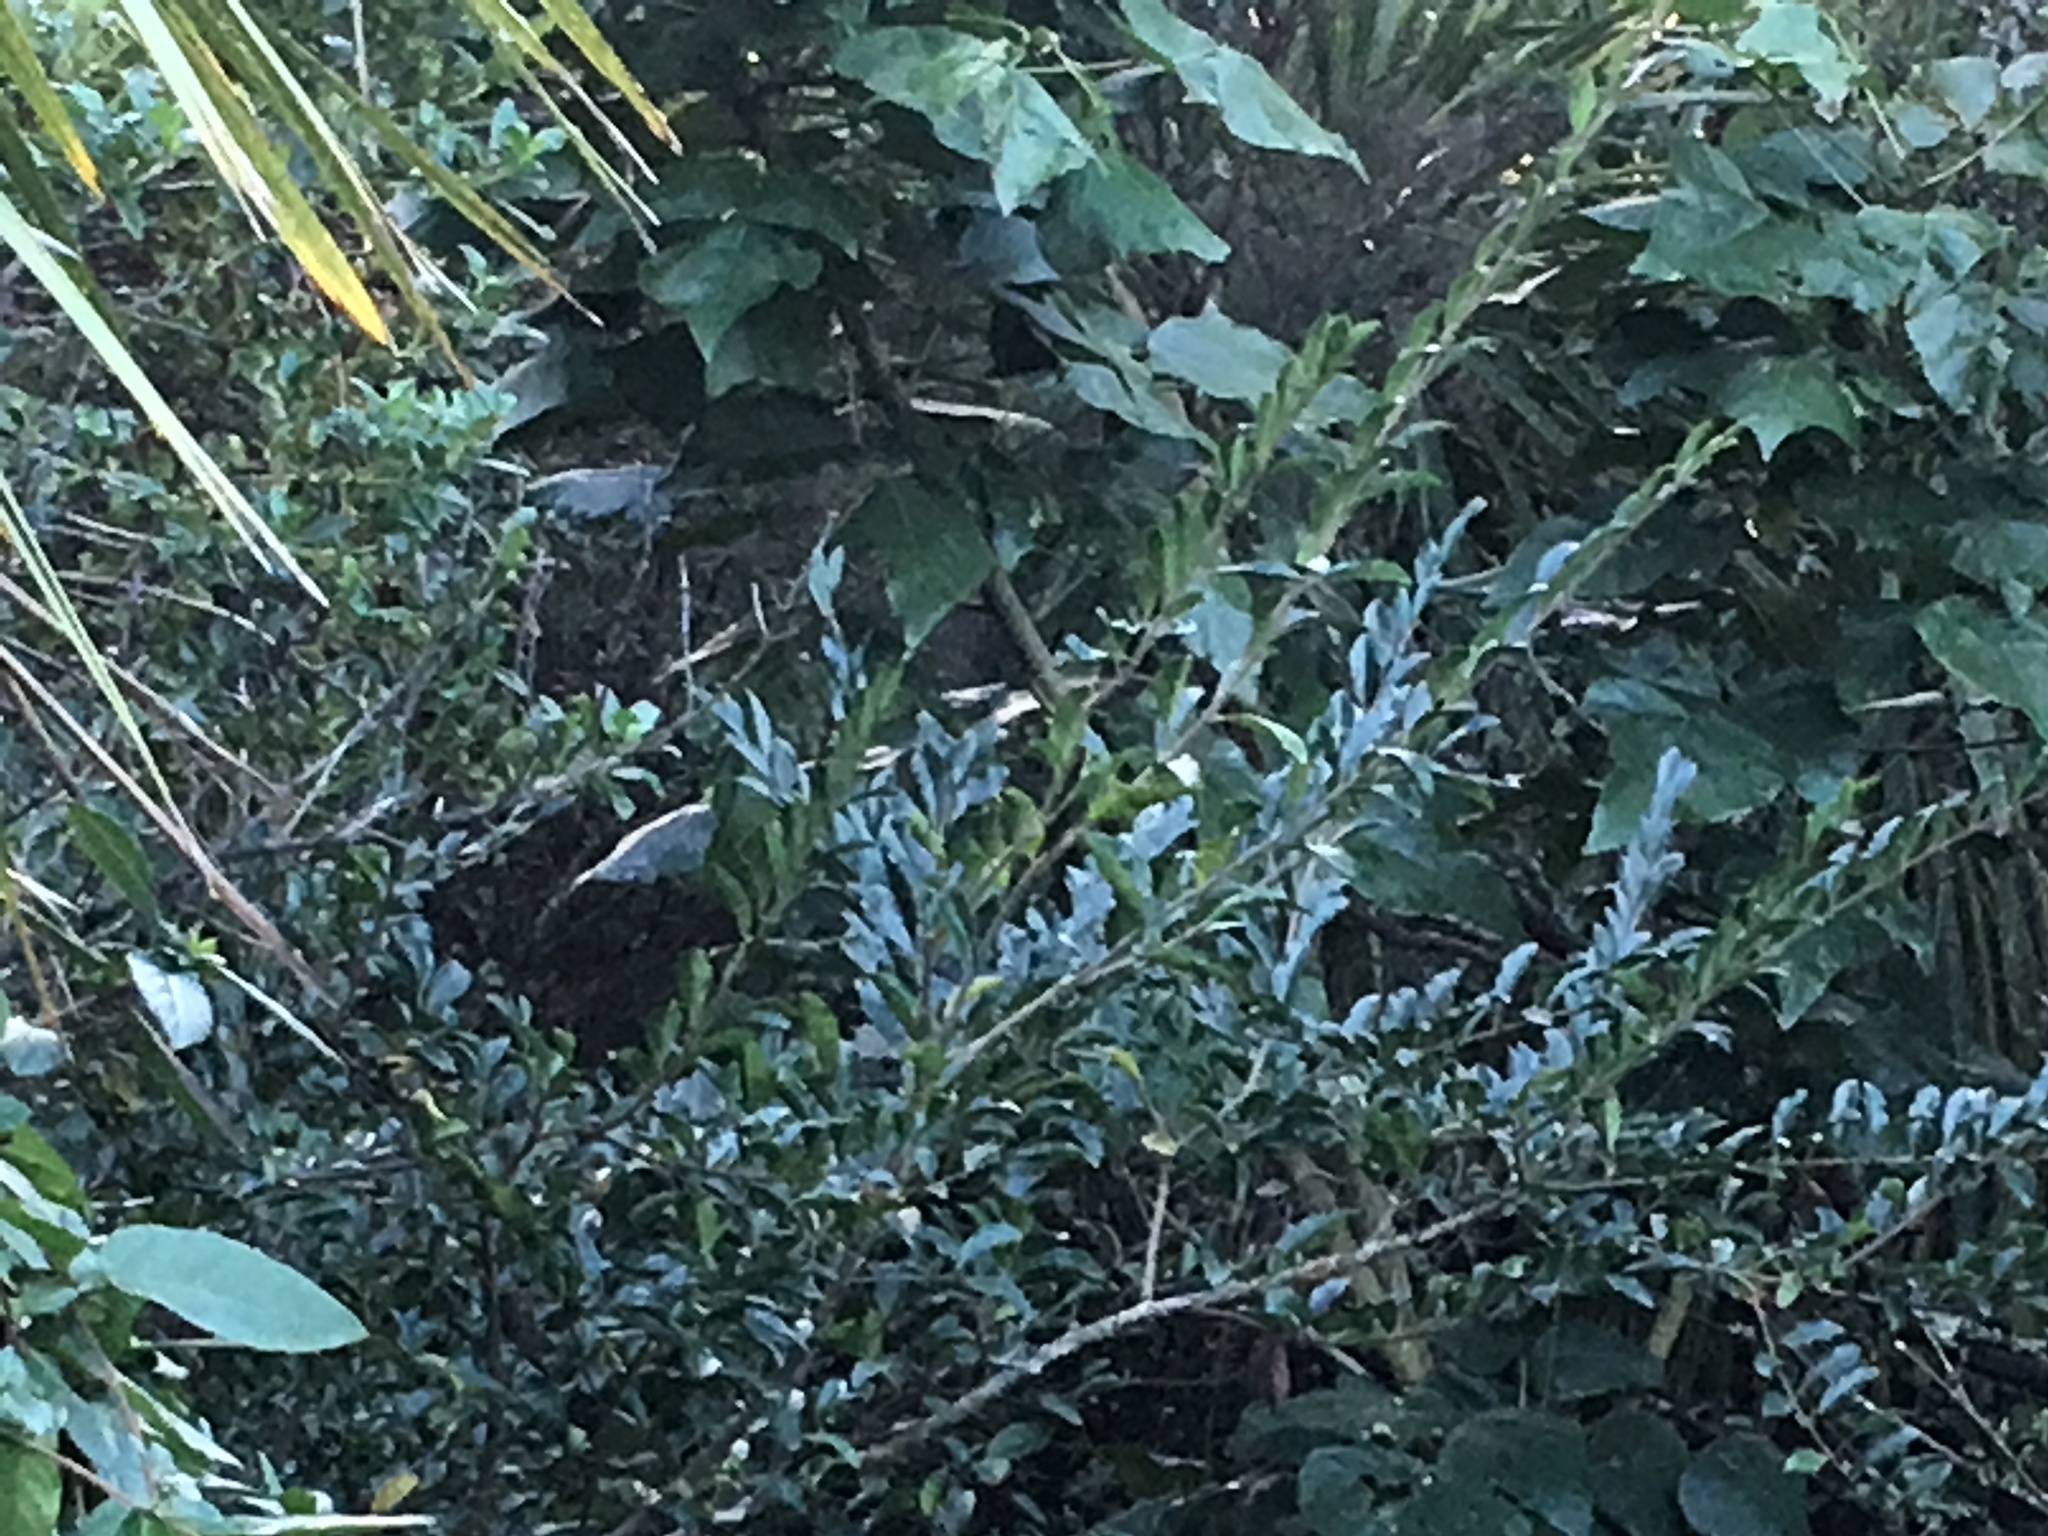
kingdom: Plantae
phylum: Tracheophyta
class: Magnoliopsida
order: Fabales
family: Fabaceae
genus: Erythrina
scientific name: Erythrina sykesii
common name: Coraltree
